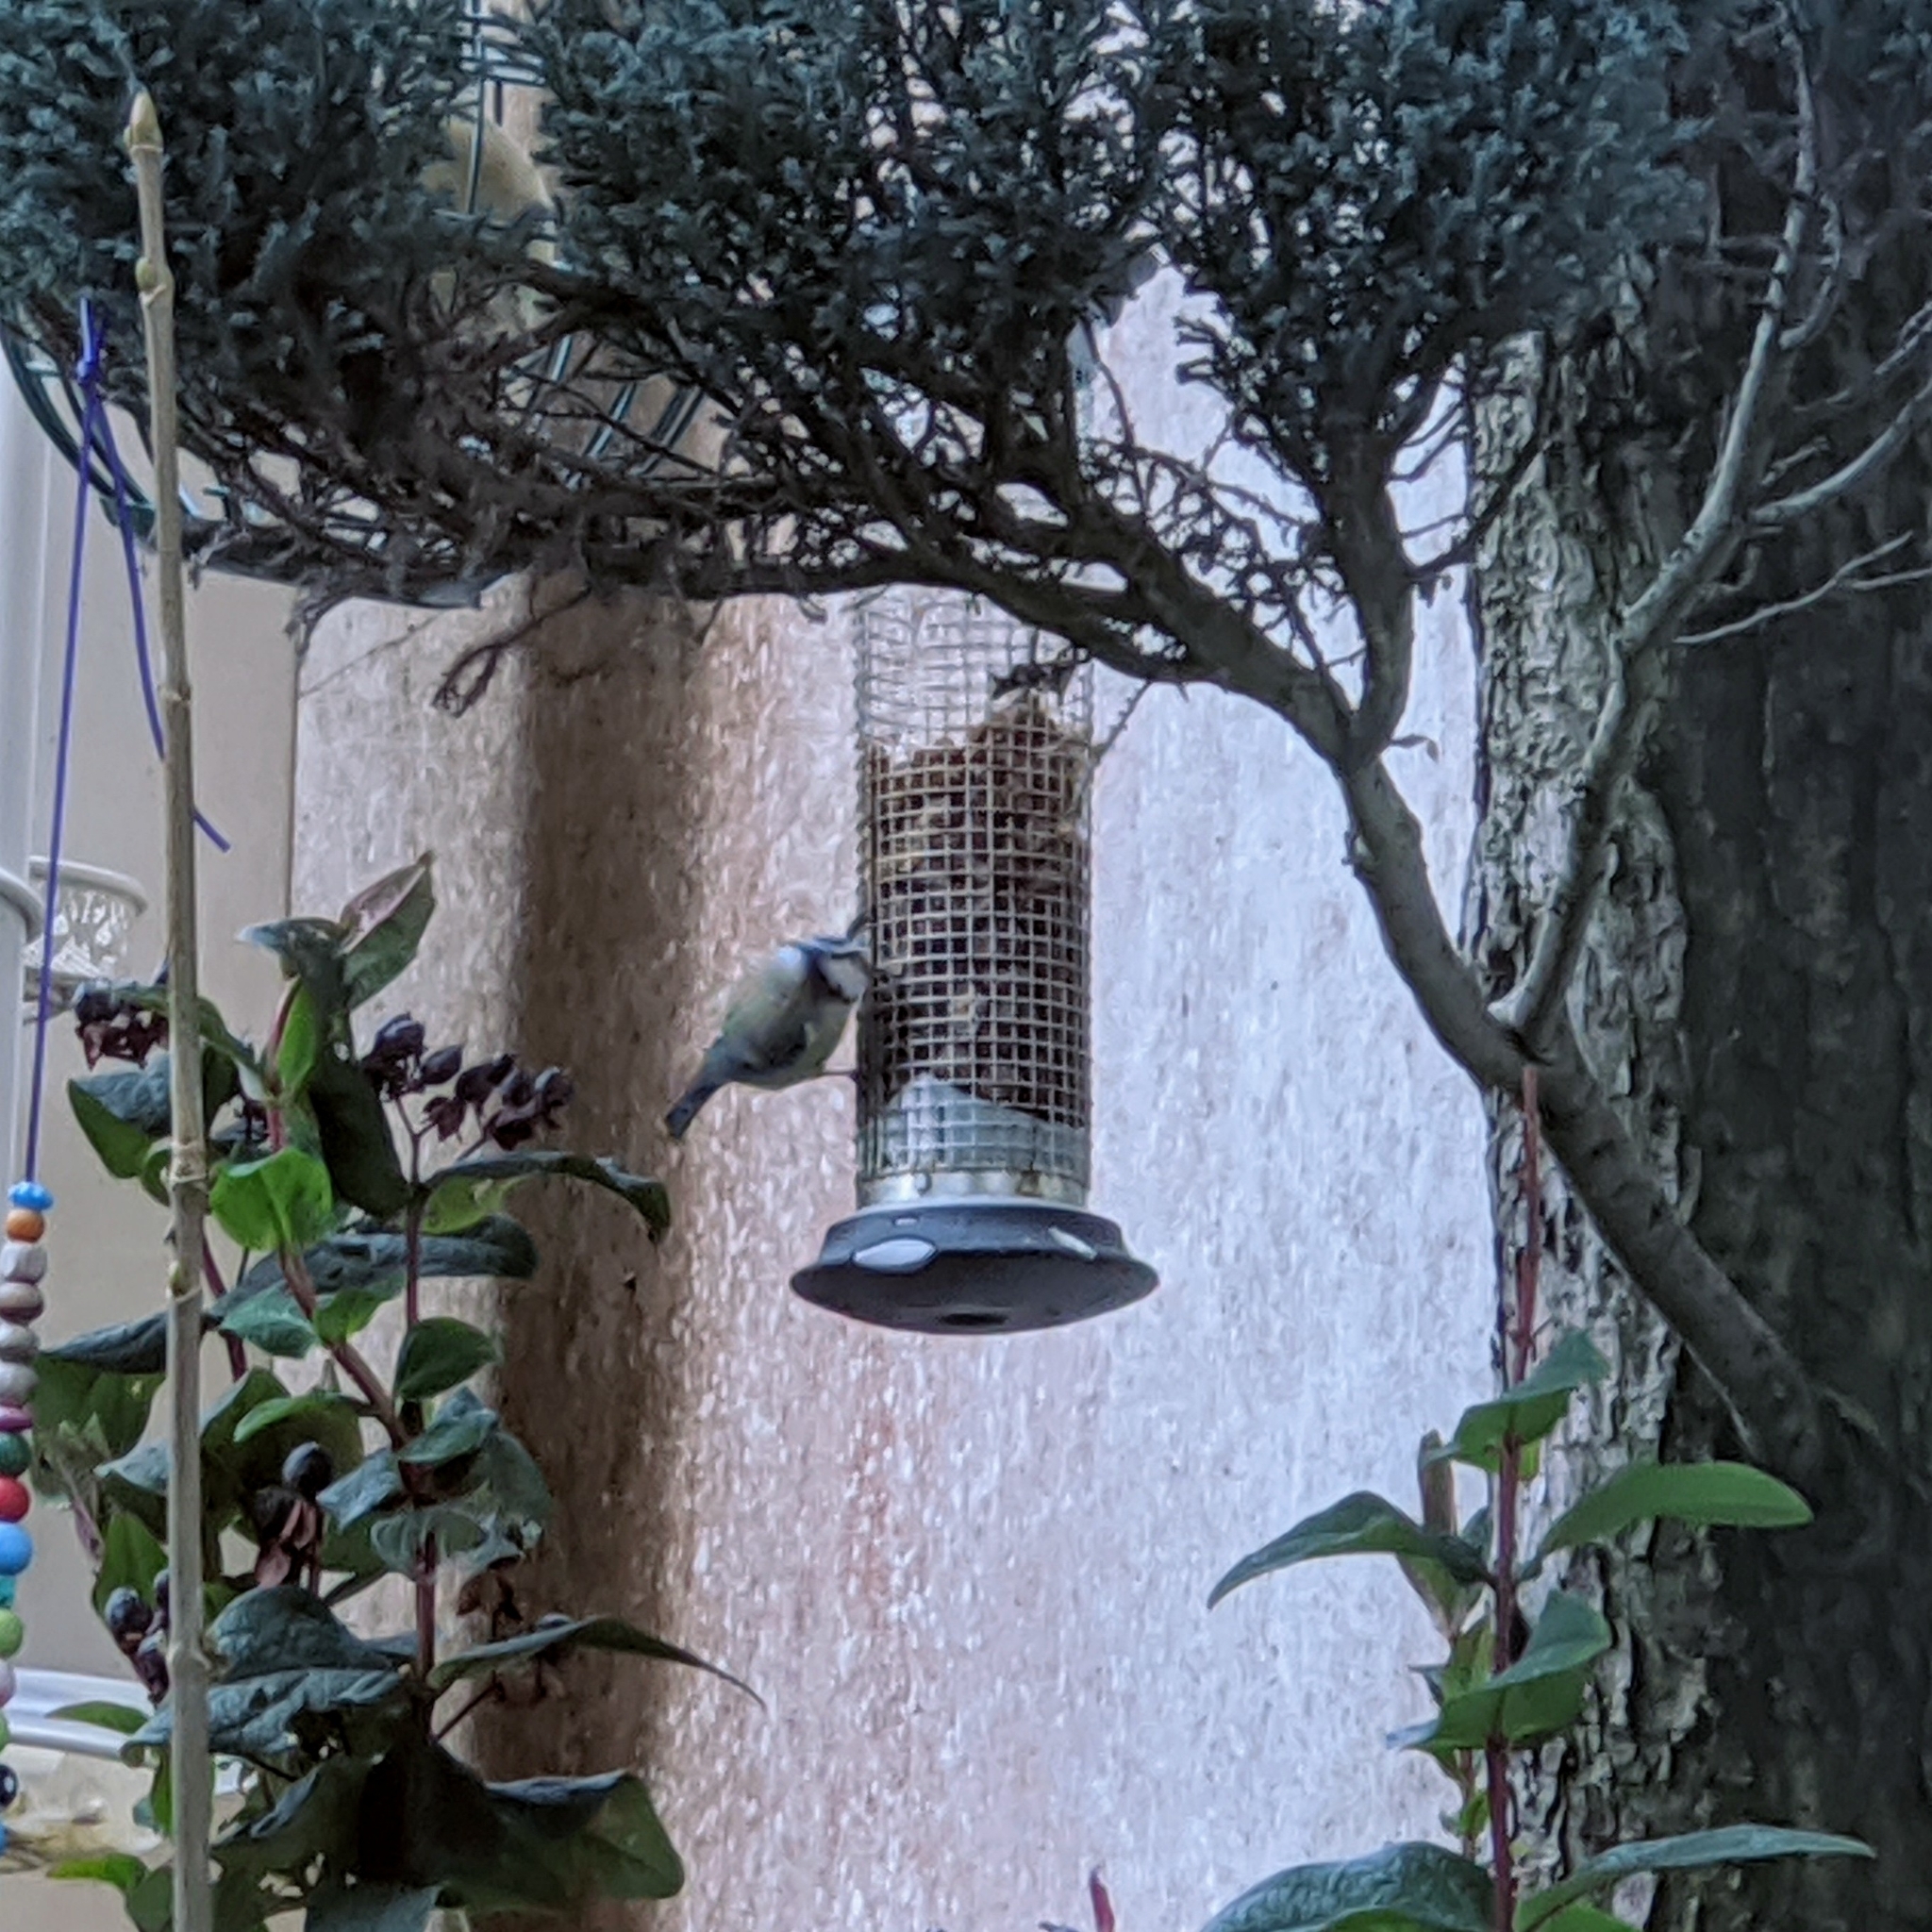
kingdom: Animalia
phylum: Chordata
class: Aves
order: Passeriformes
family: Paridae
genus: Cyanistes
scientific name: Cyanistes caeruleus
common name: Eurasian blue tit
